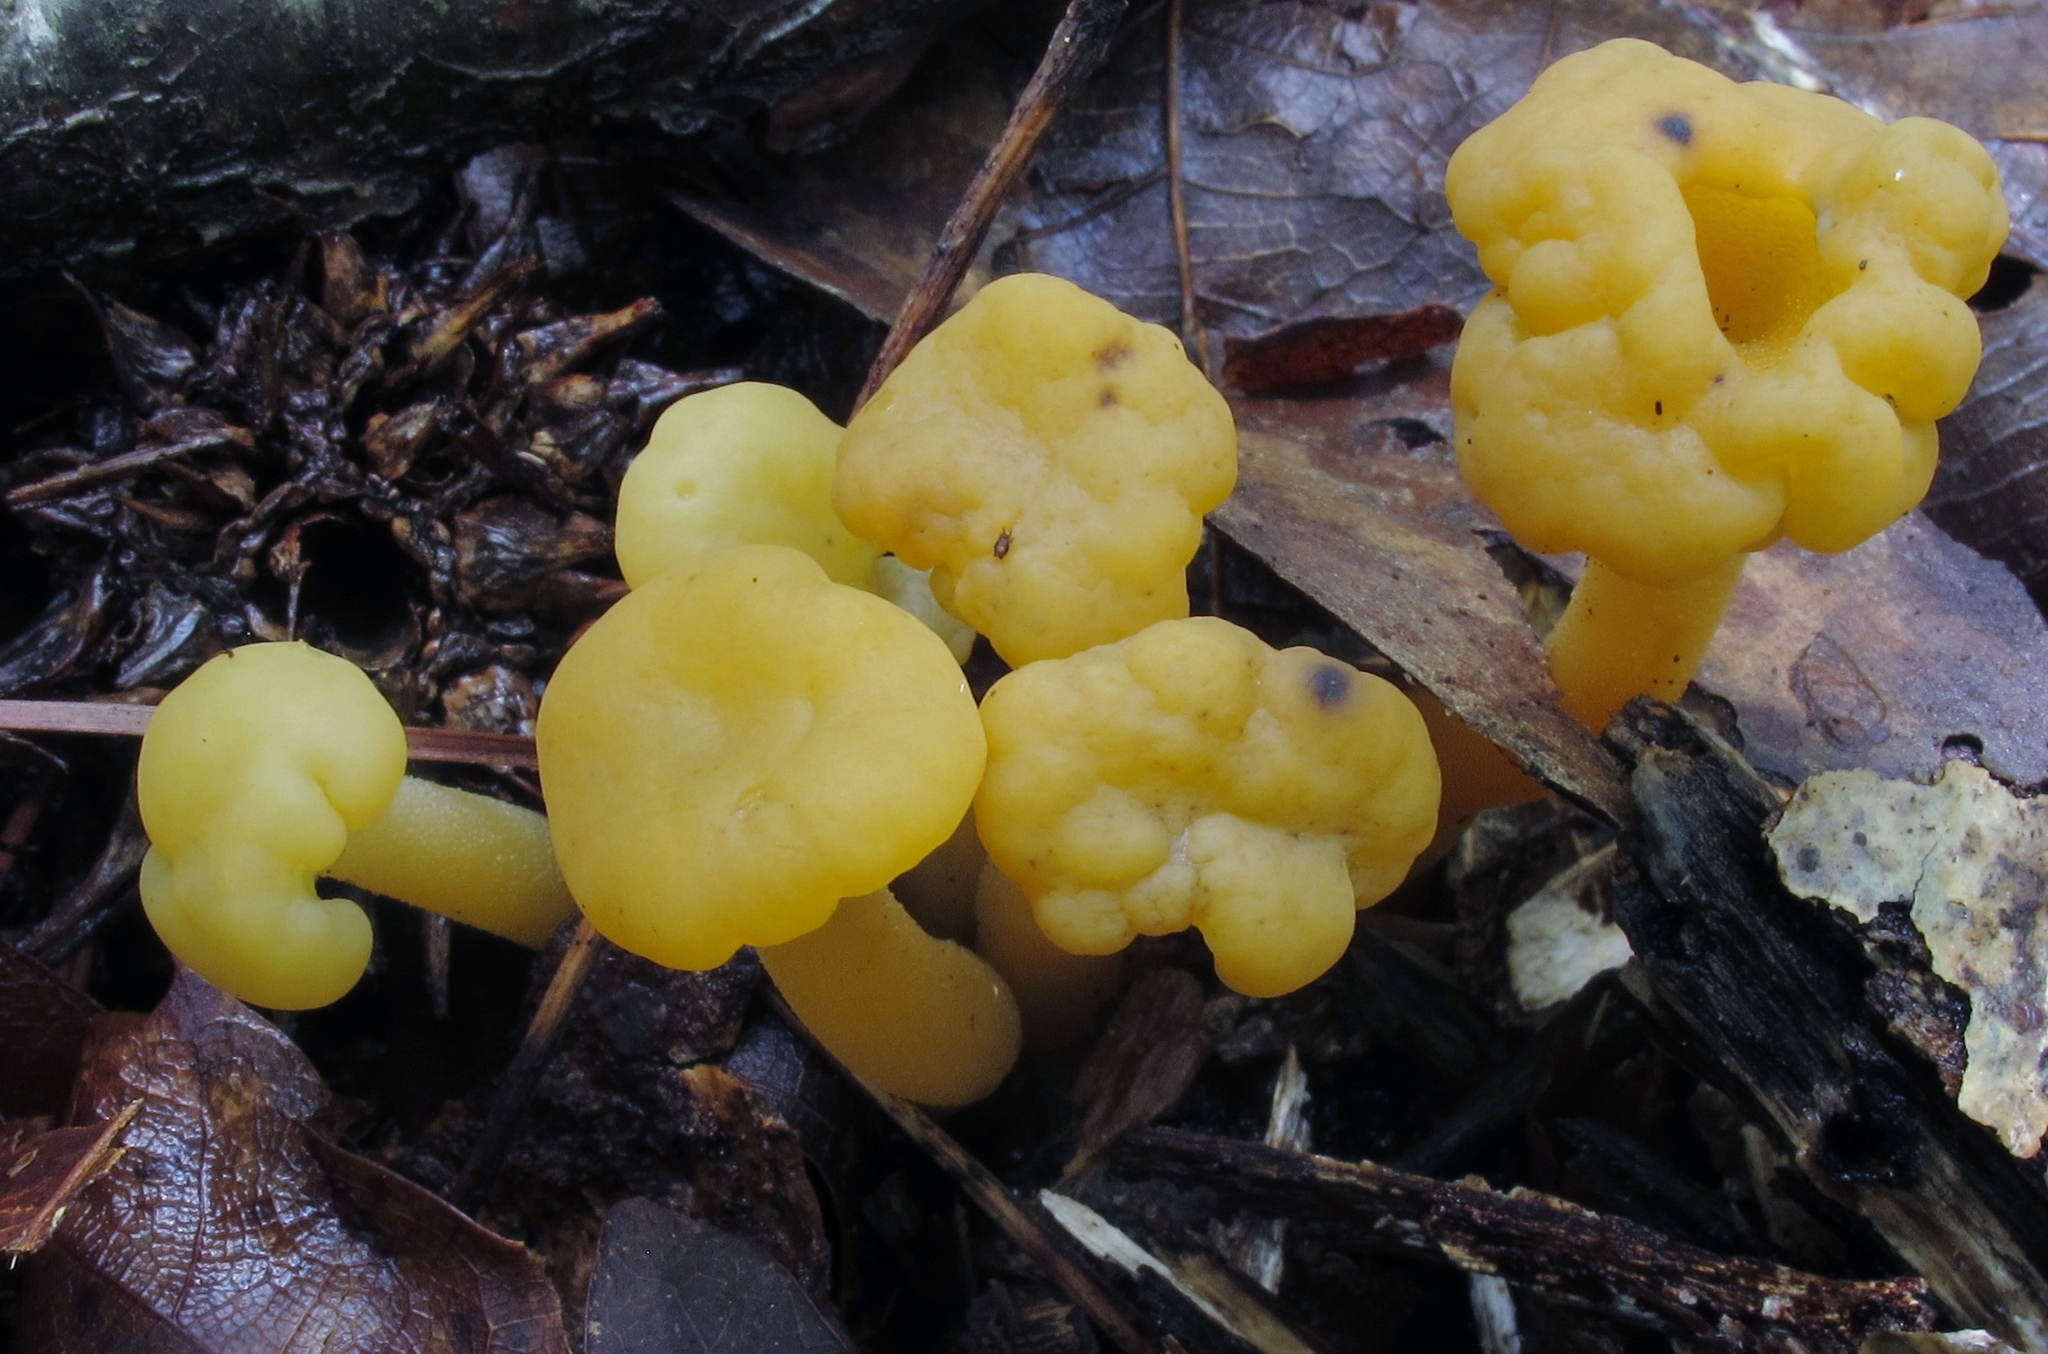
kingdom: Fungi
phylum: Ascomycota
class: Leotiomycetes
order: Leotiales
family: Leotiaceae
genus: Leotia
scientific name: Leotia lubrica
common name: Jellybaby
